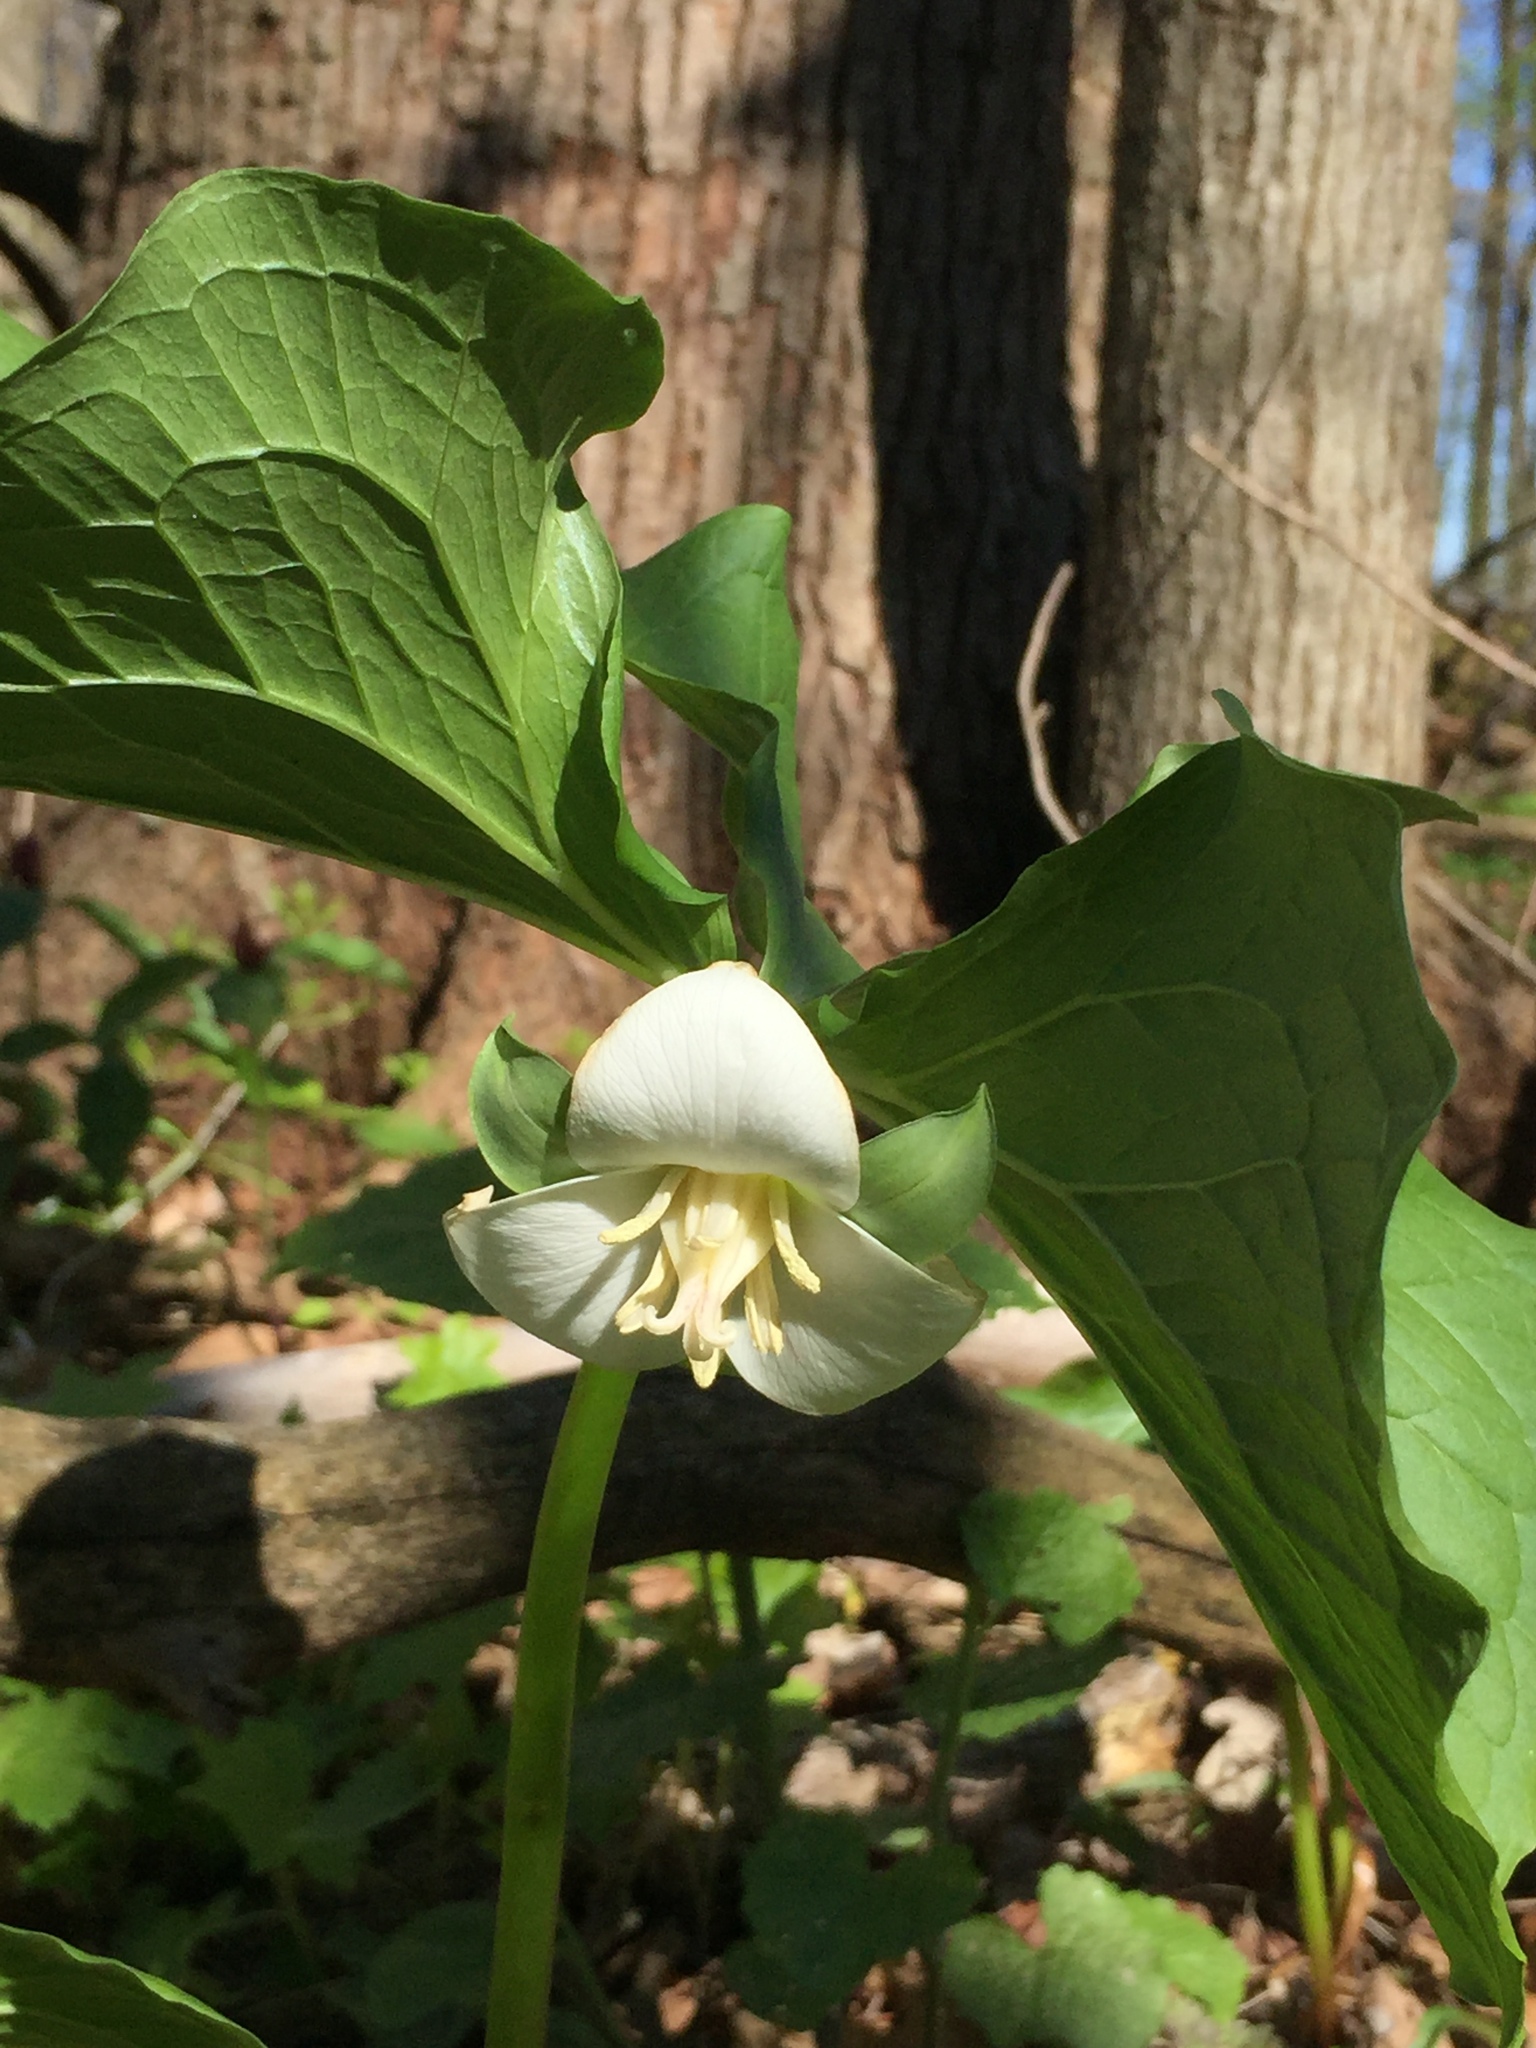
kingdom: Plantae
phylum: Tracheophyta
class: Liliopsida
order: Liliales
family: Melanthiaceae
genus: Trillium
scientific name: Trillium flexipes
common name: Drooping trillium
